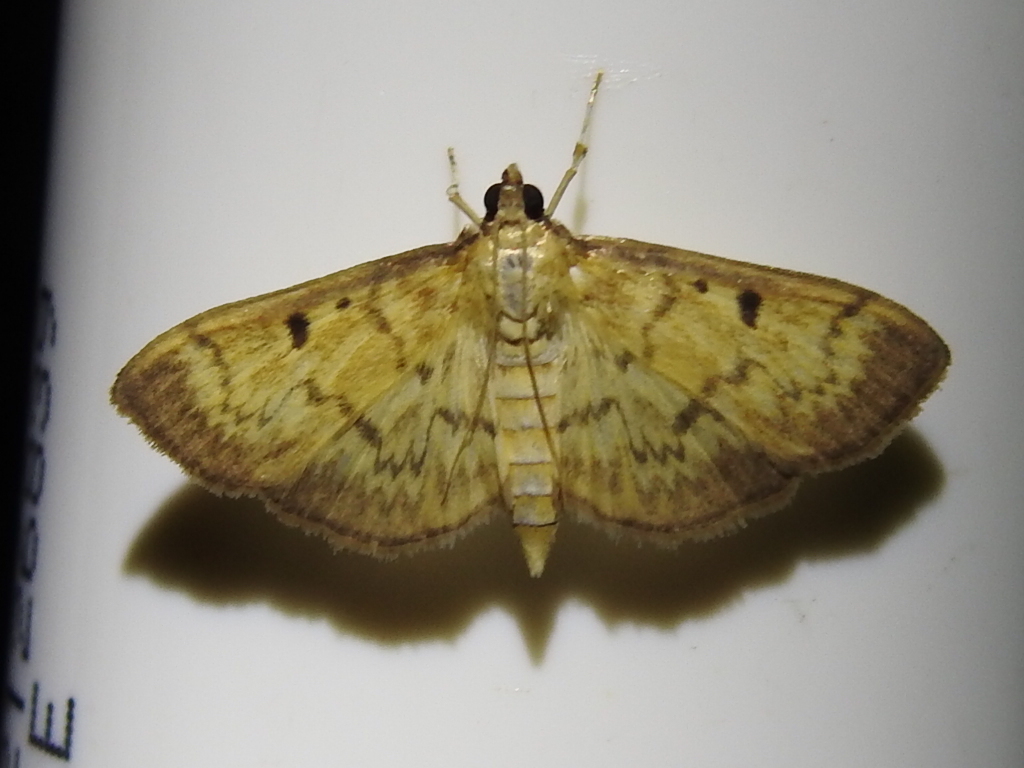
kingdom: Animalia
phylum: Arthropoda
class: Insecta
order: Lepidoptera
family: Crambidae
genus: Herpetogramma
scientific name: Herpetogramma fluctuosalis
